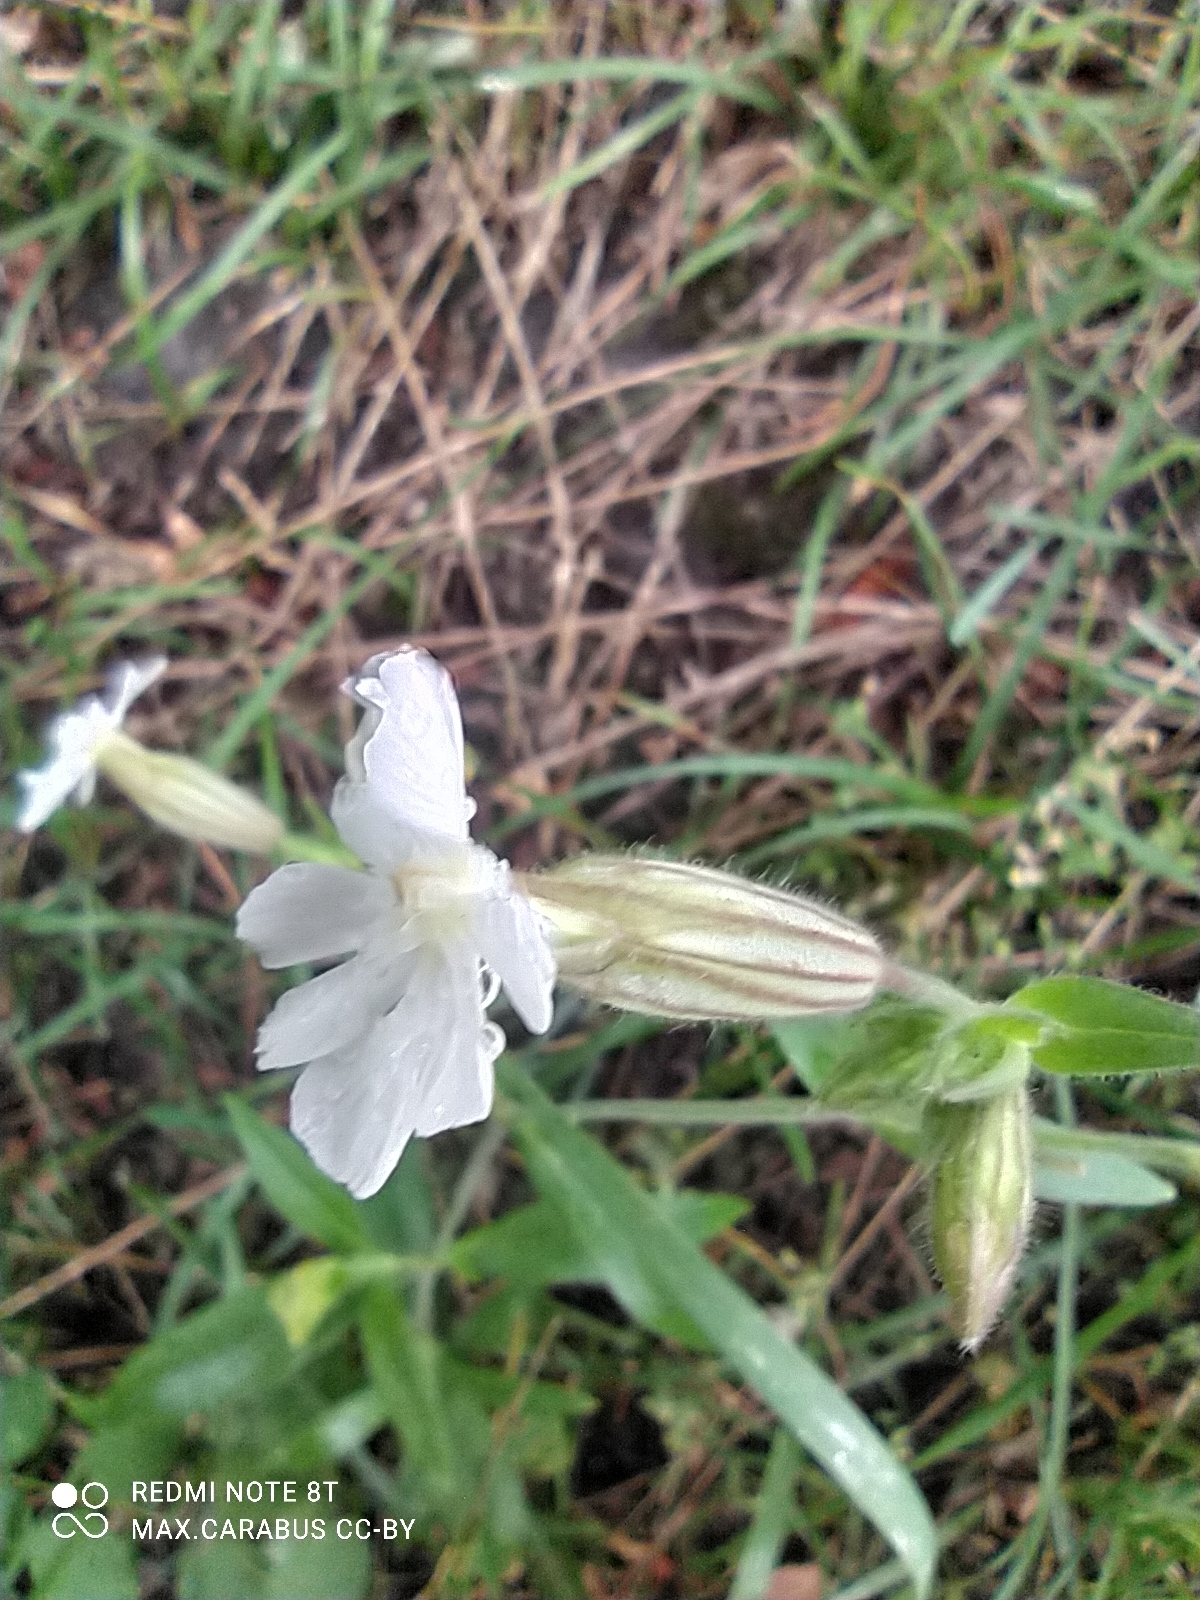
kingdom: Plantae
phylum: Tracheophyta
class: Magnoliopsida
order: Caryophyllales
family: Caryophyllaceae
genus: Silene
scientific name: Silene latifolia
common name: White campion
